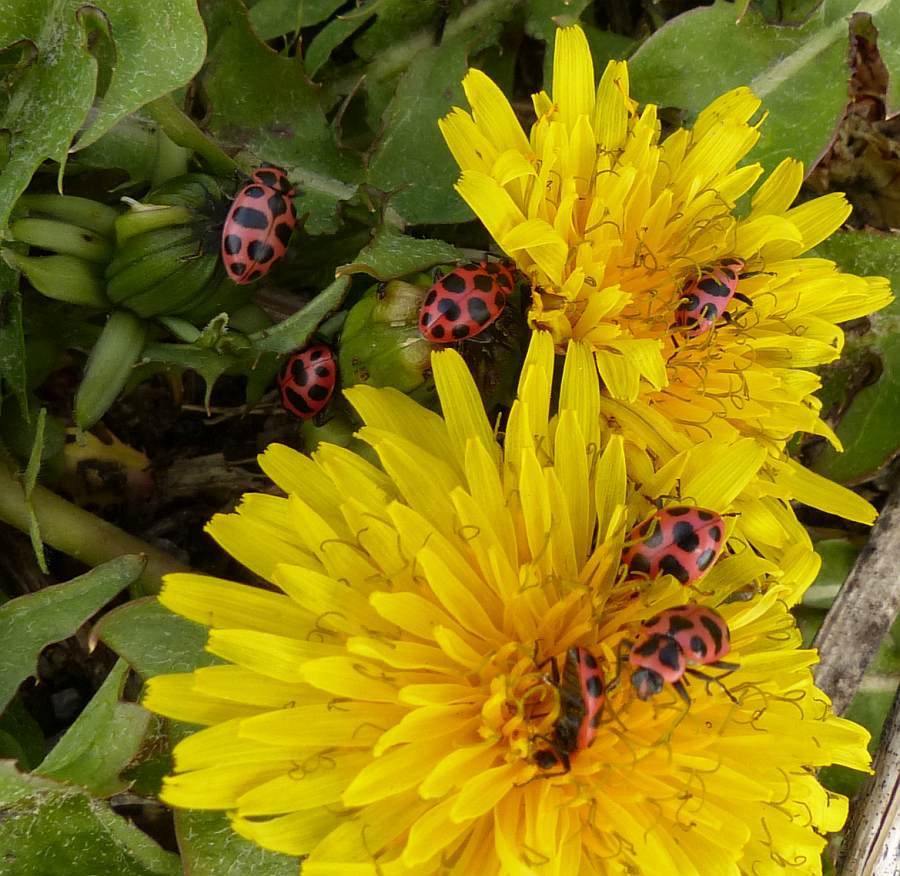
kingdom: Animalia
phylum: Arthropoda
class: Insecta
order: Coleoptera
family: Coccinellidae
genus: Coleomegilla
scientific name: Coleomegilla maculata
